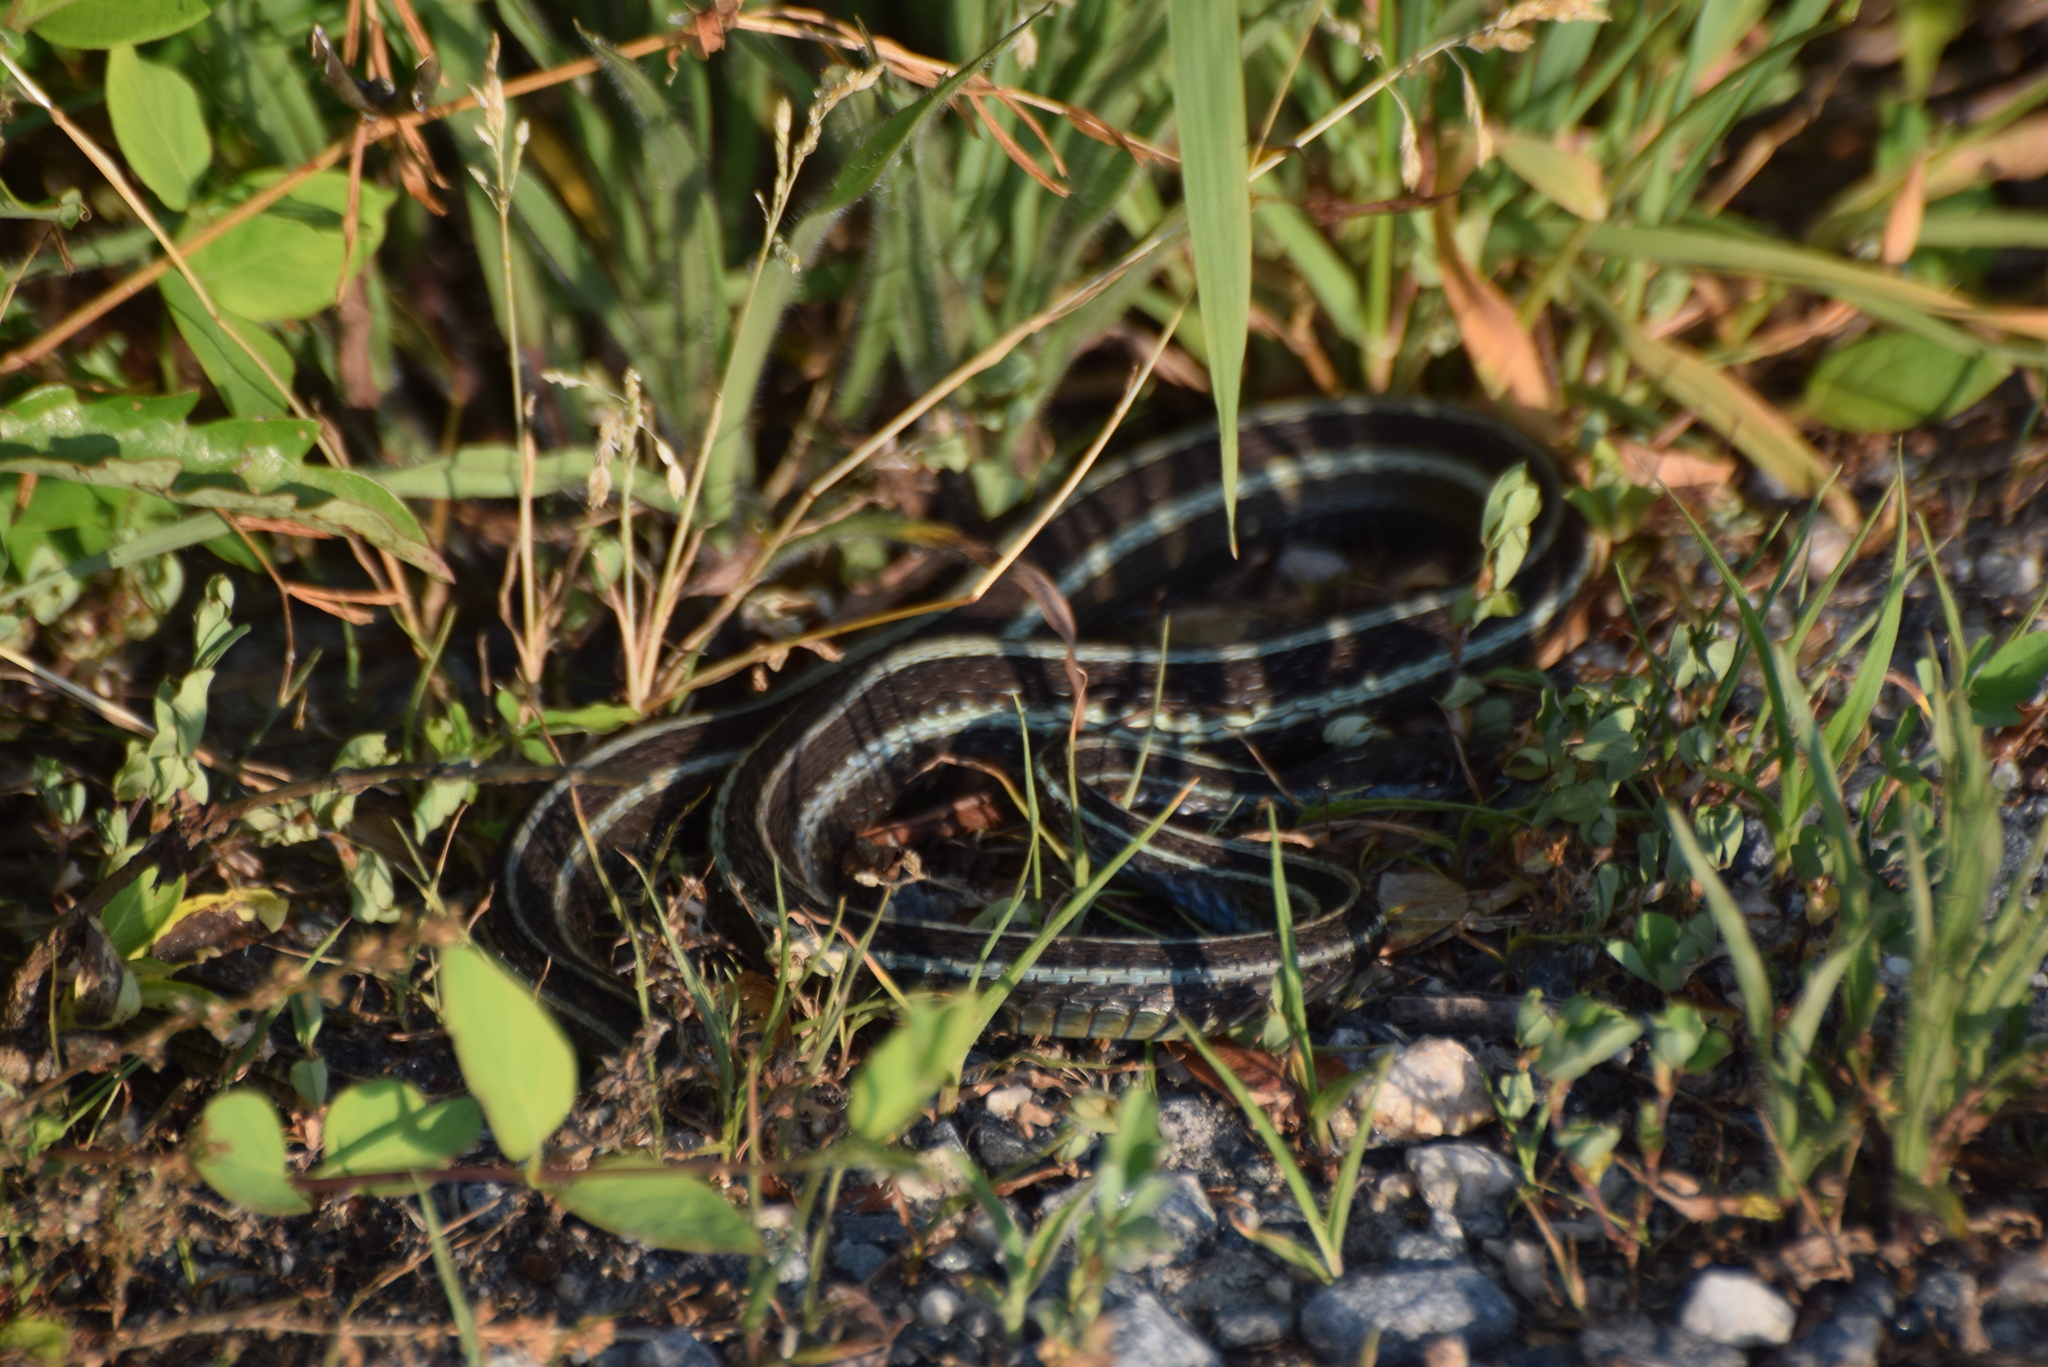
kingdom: Animalia
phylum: Chordata
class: Squamata
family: Colubridae
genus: Thamnophis
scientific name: Thamnophis sirtalis
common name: Common garter snake
